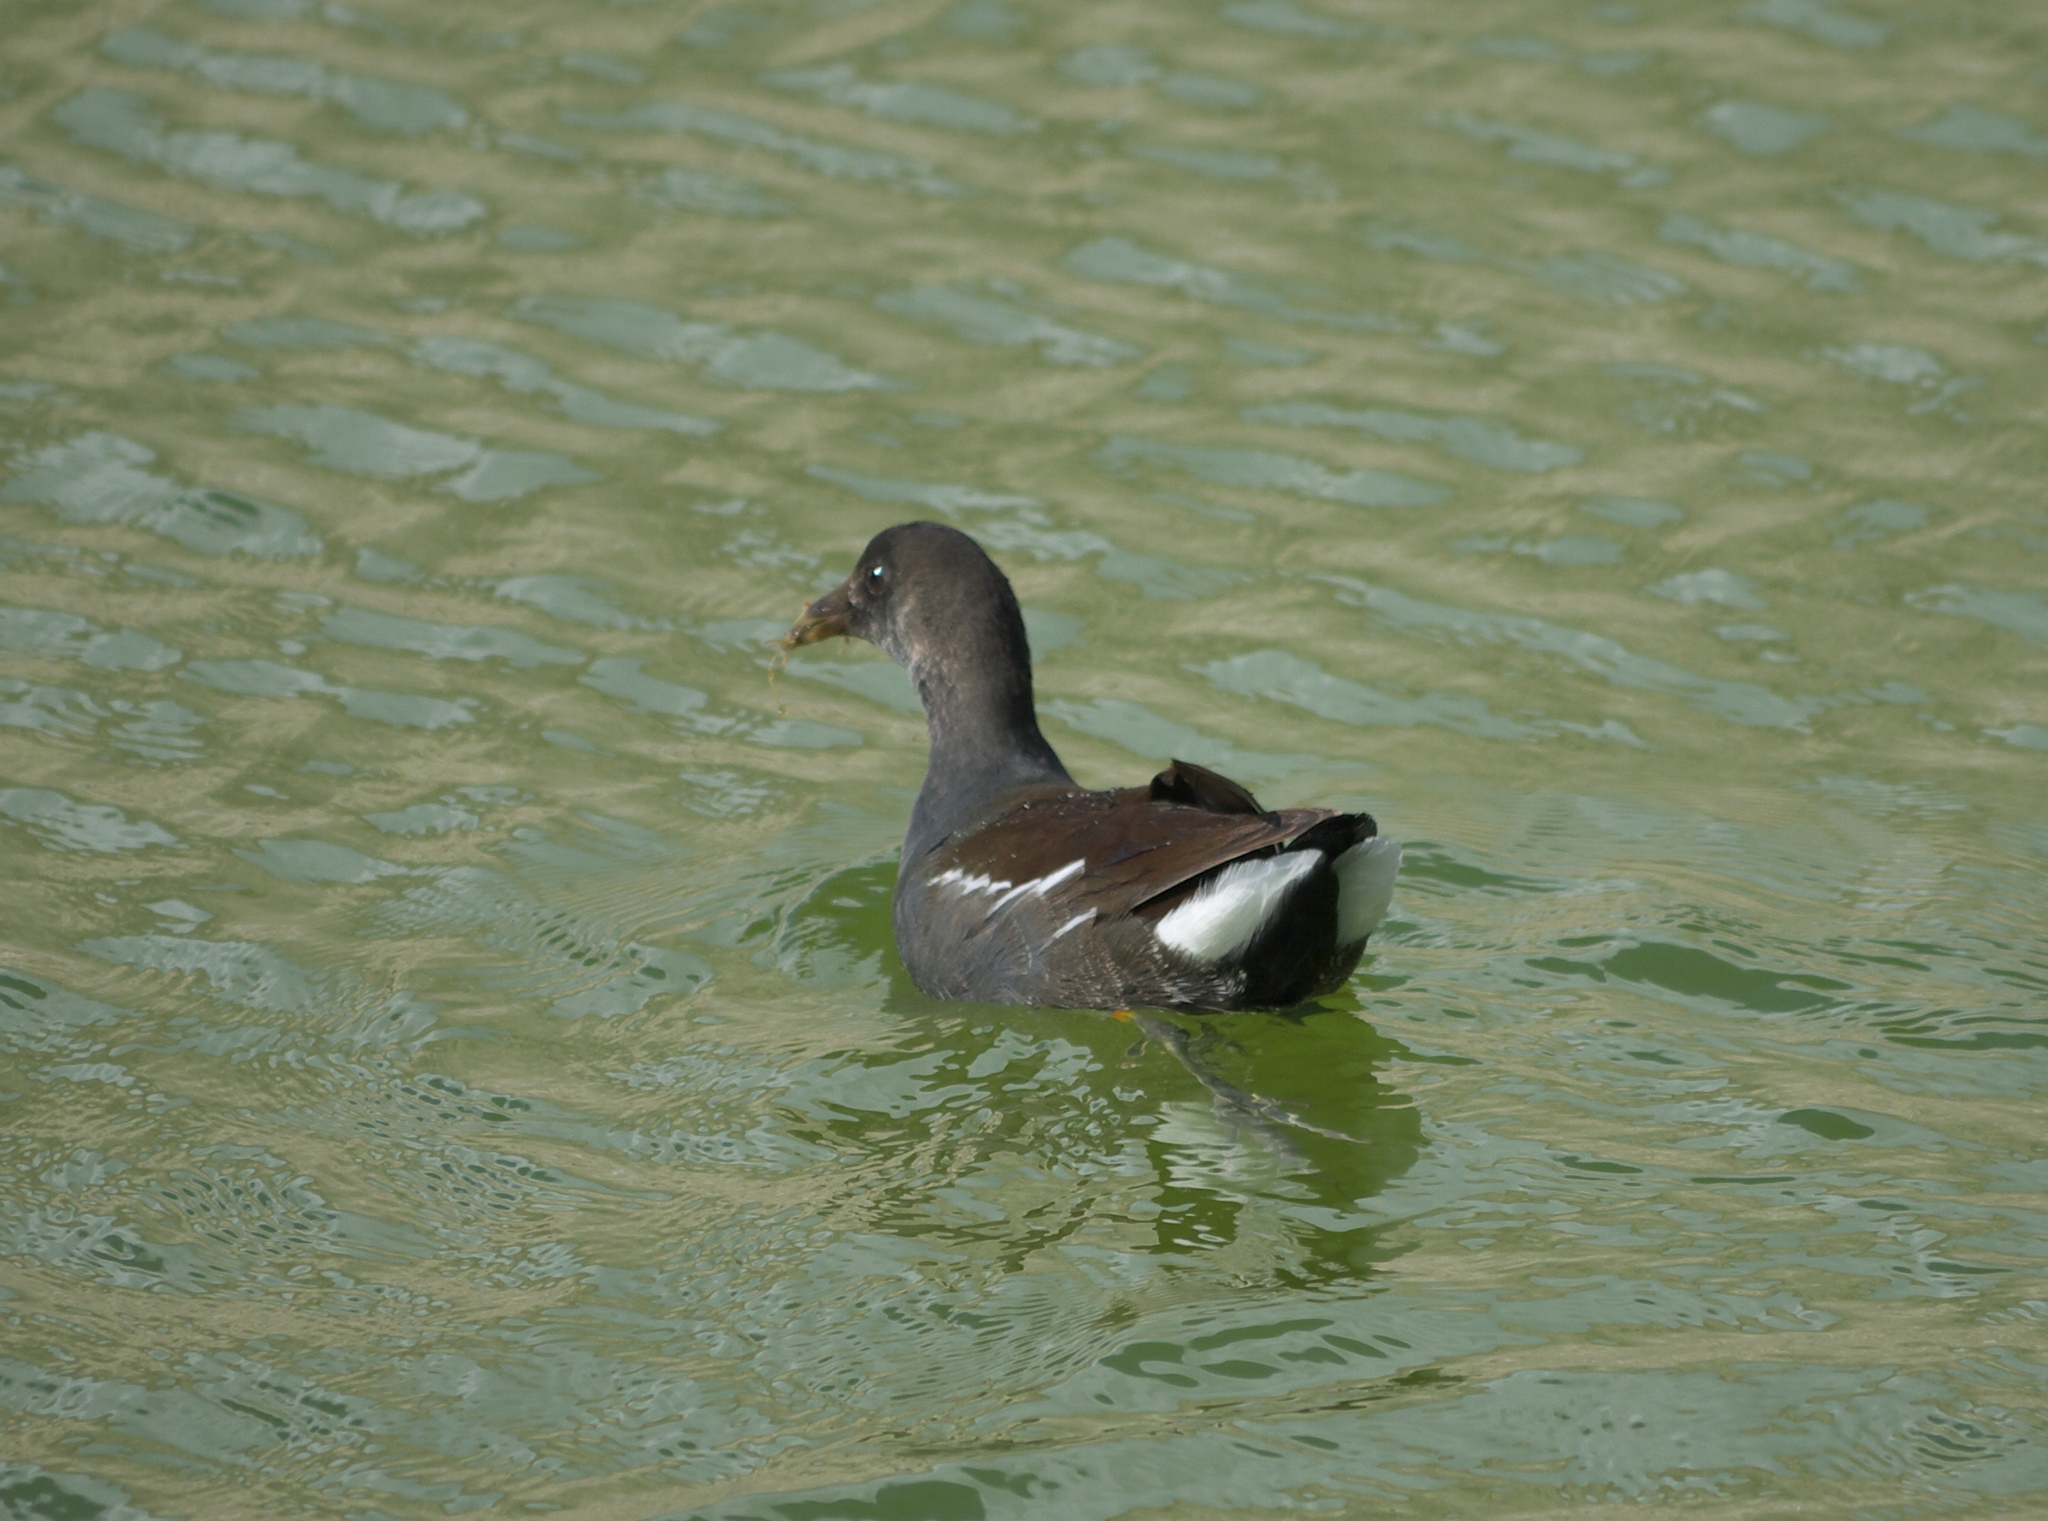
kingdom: Animalia
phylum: Chordata
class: Aves
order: Gruiformes
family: Rallidae
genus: Gallinula
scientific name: Gallinula chloropus
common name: Common moorhen
